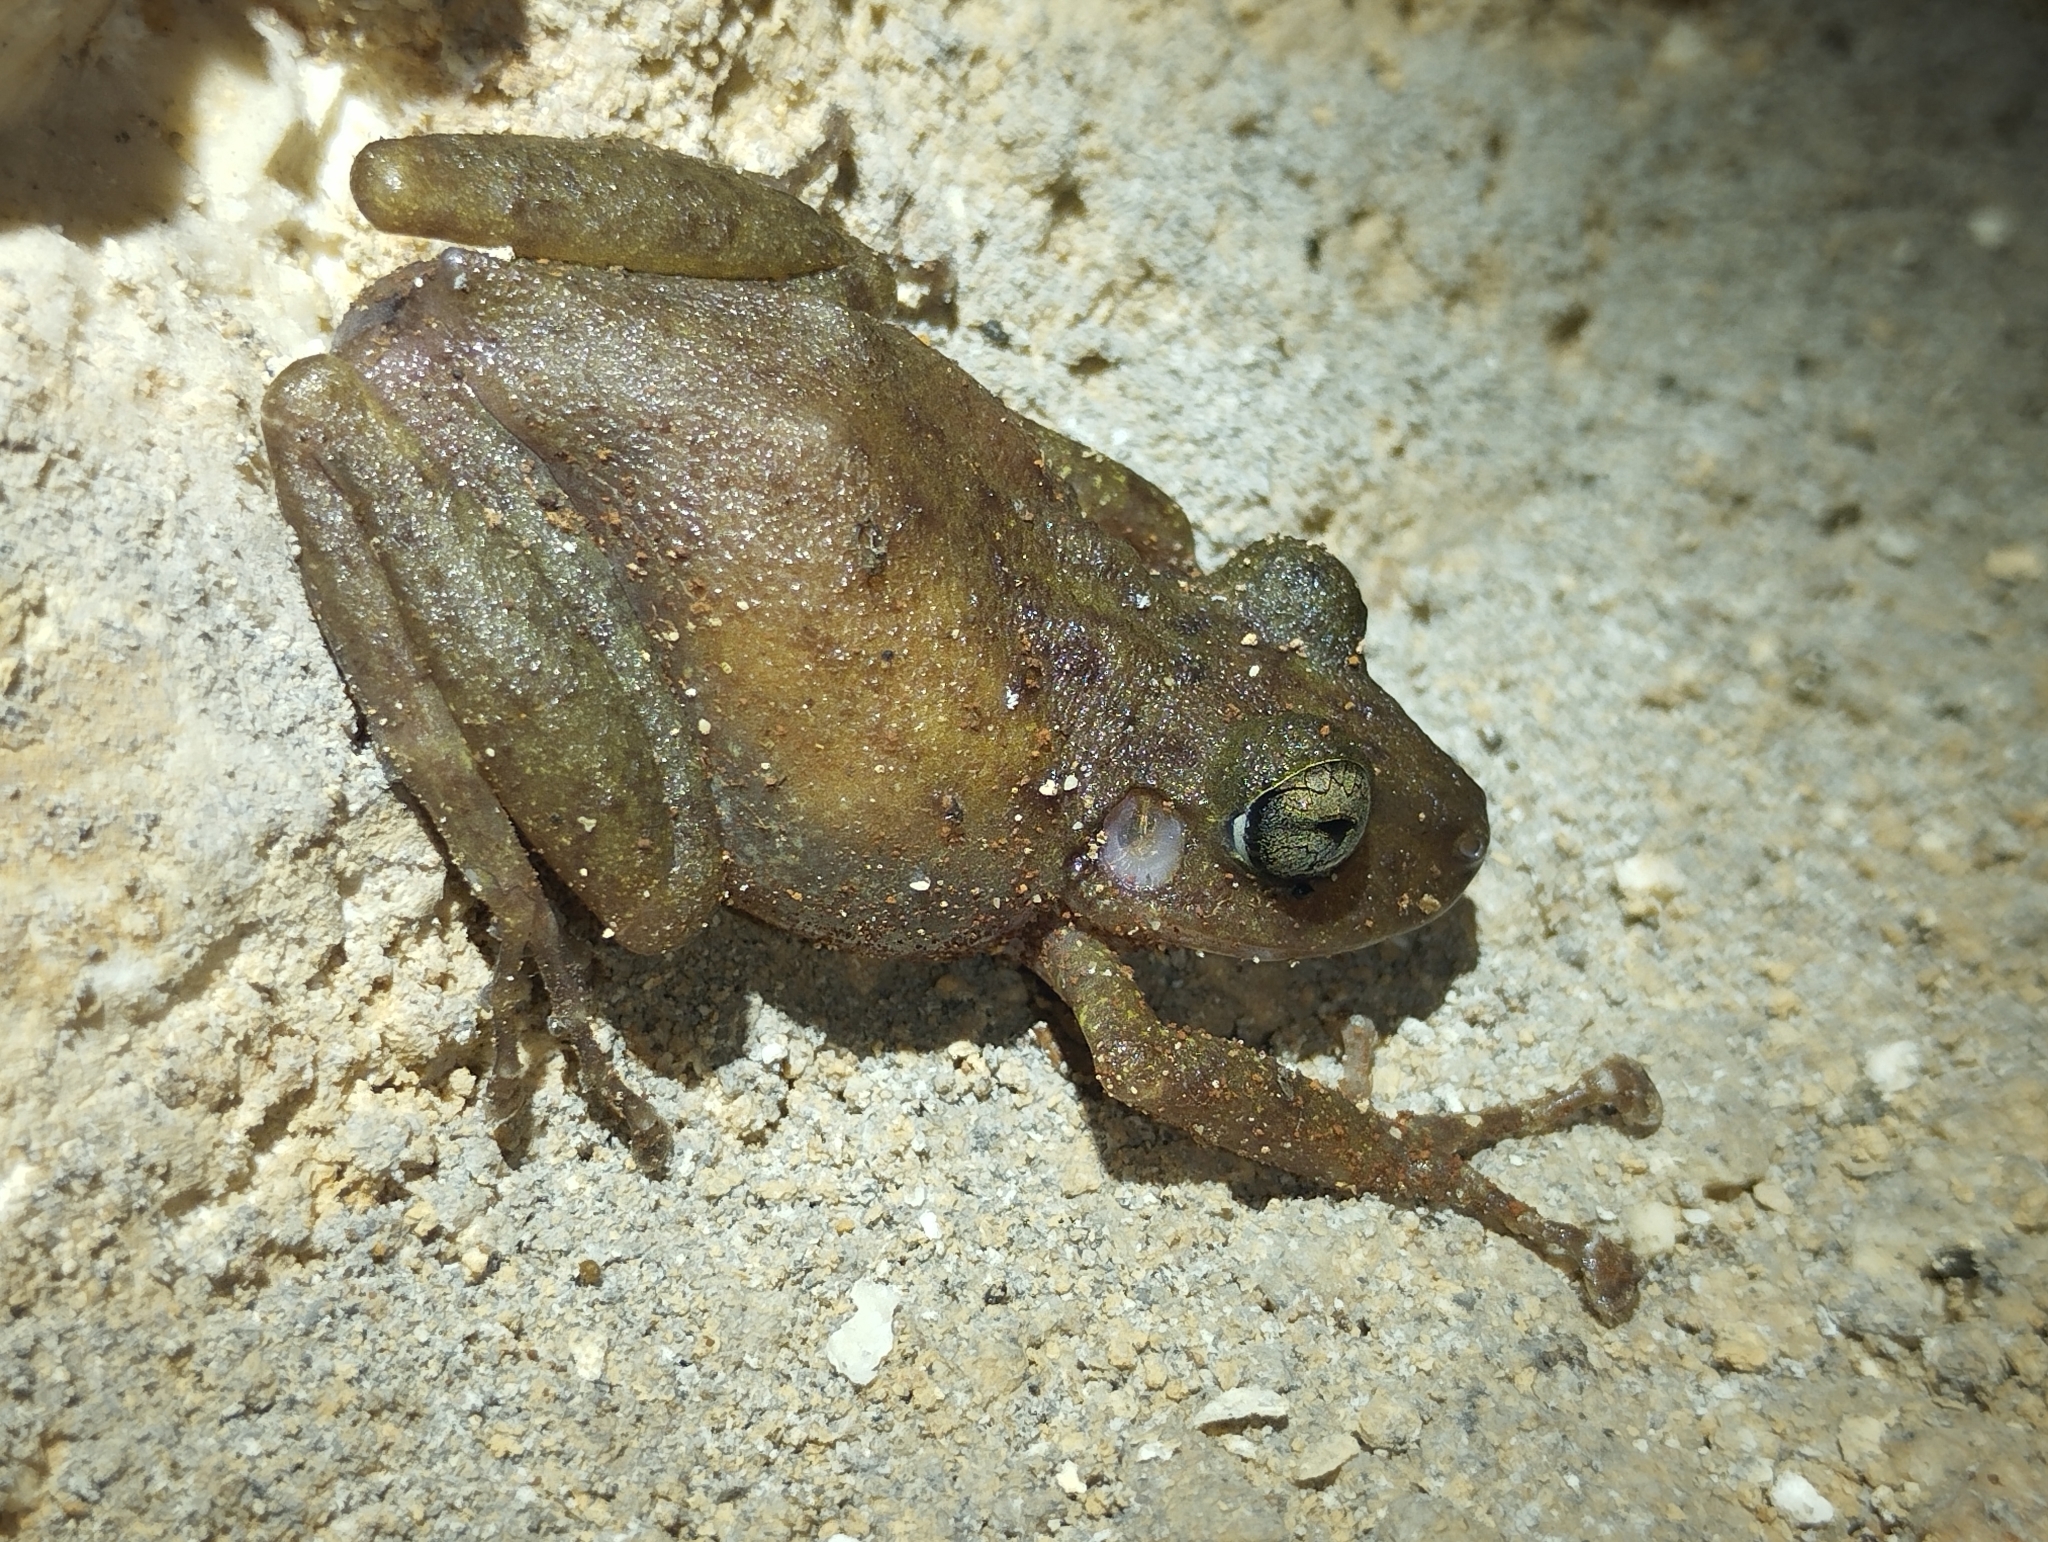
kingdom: Animalia
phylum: Chordata
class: Amphibia
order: Anura
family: Craugastoridae
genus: Craugastor
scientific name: Craugastor yucatanensis
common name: Yucatan rainfrog
